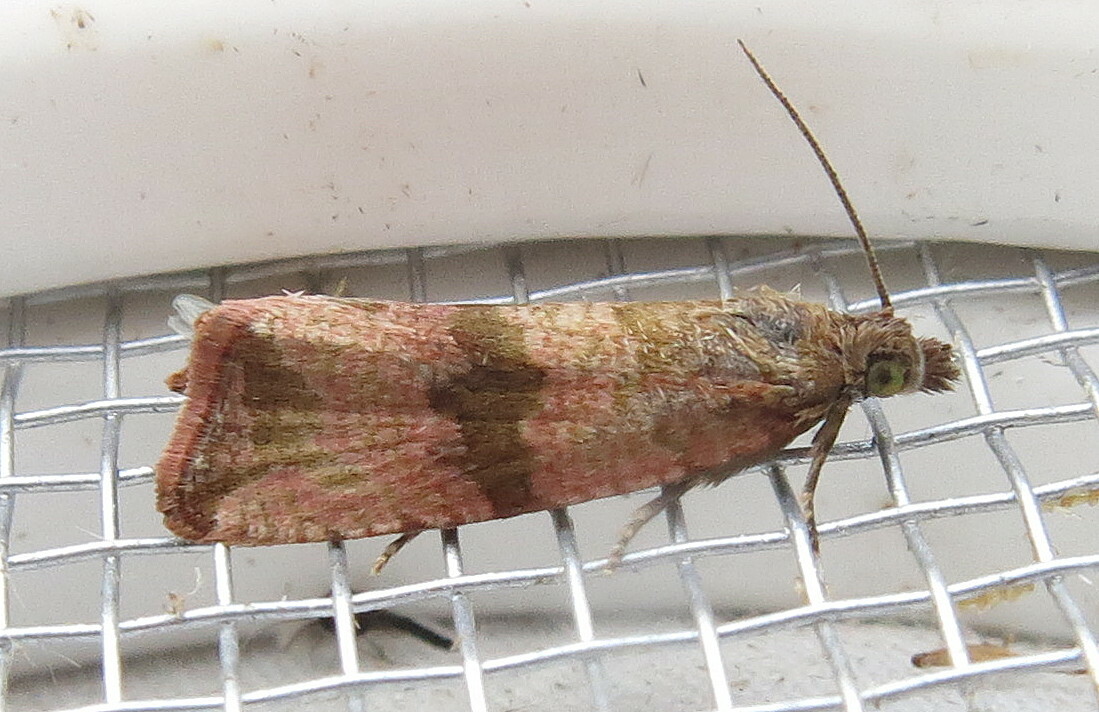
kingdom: Animalia
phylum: Arthropoda
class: Insecta
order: Lepidoptera
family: Tortricidae
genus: Celypha
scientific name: Celypha striana
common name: Barred marble
